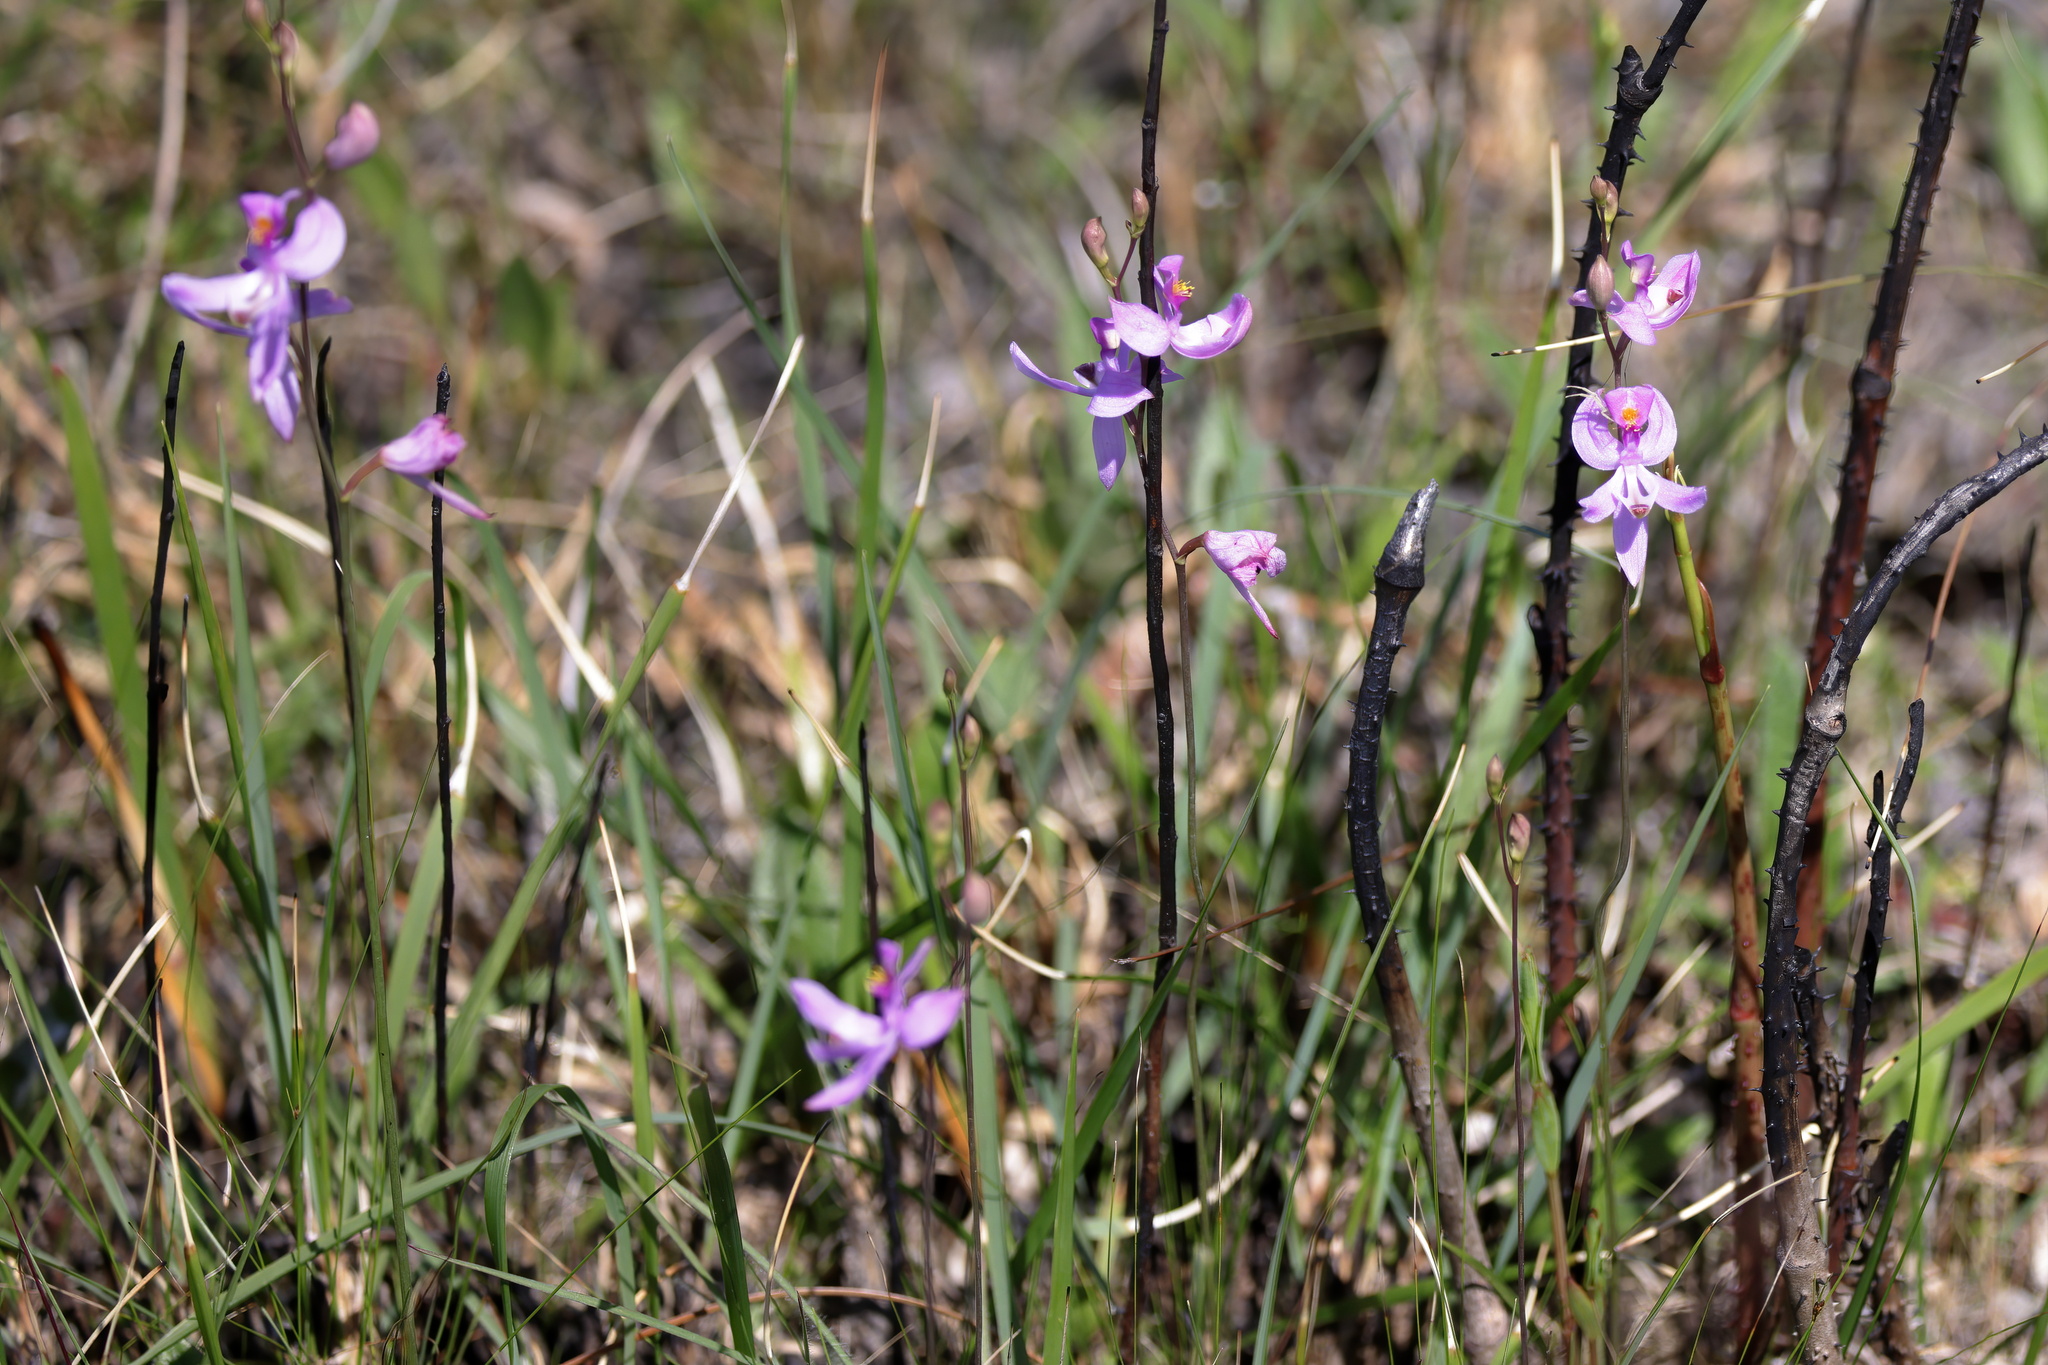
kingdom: Plantae
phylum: Tracheophyta
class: Liliopsida
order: Asparagales
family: Orchidaceae
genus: Calopogon
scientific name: Calopogon pallidus
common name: Pale grasspink
